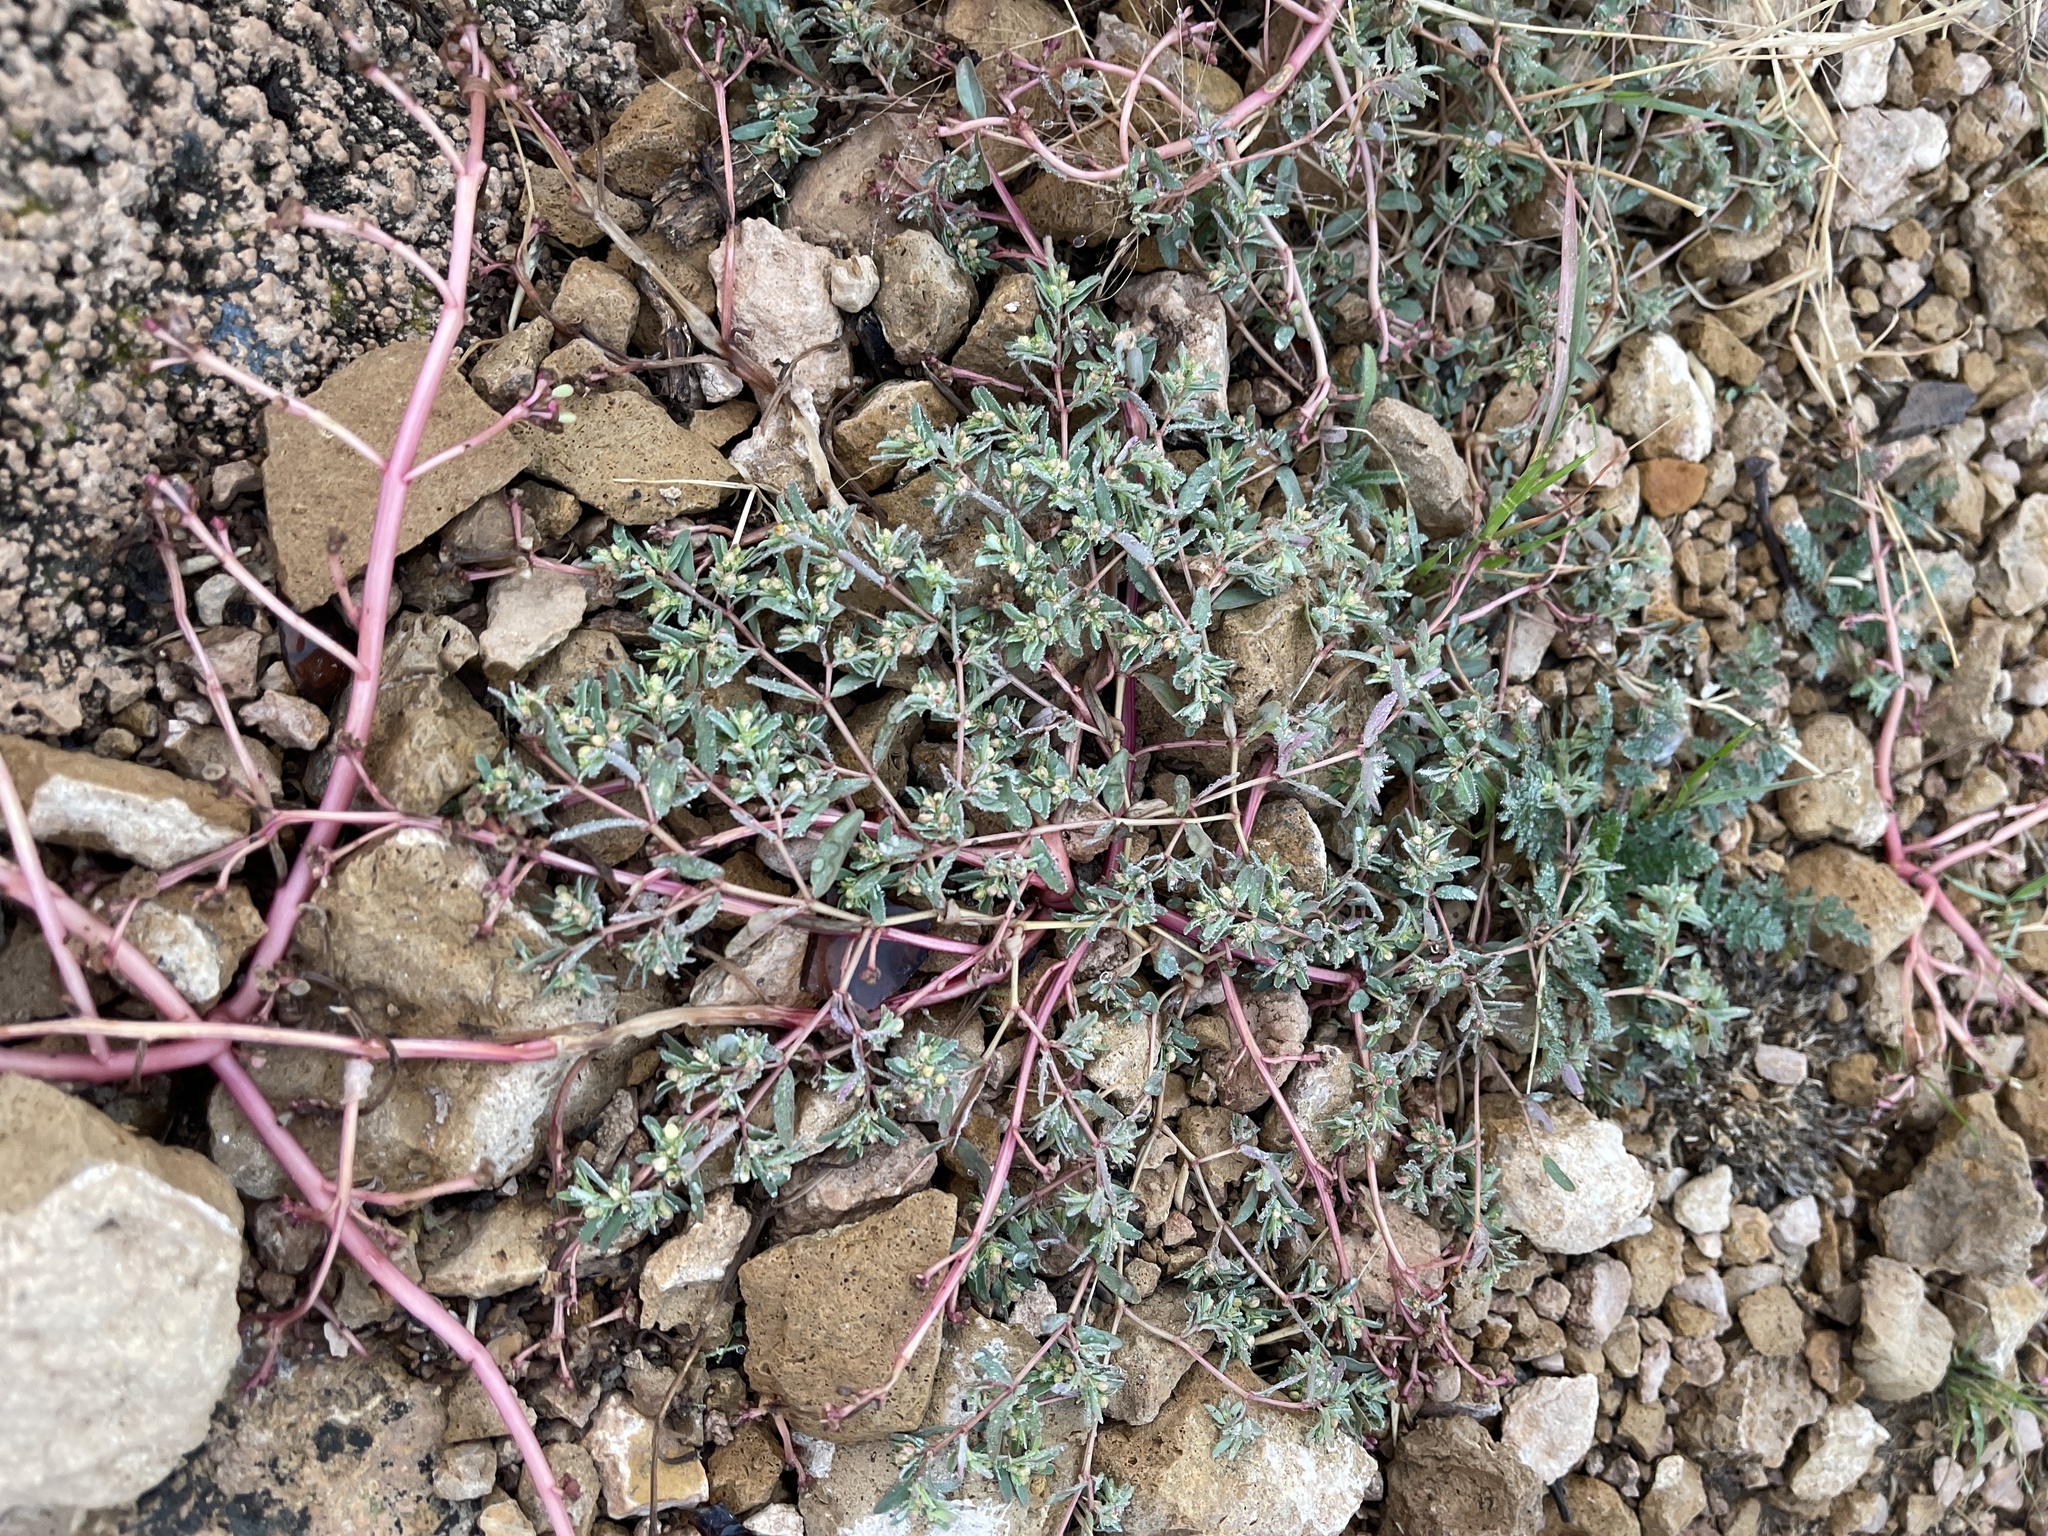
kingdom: Plantae
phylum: Tracheophyta
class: Magnoliopsida
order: Malpighiales
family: Euphorbiaceae
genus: Euphorbia
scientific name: Euphorbia serpillifolia
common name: Thyme-leaf spurge
